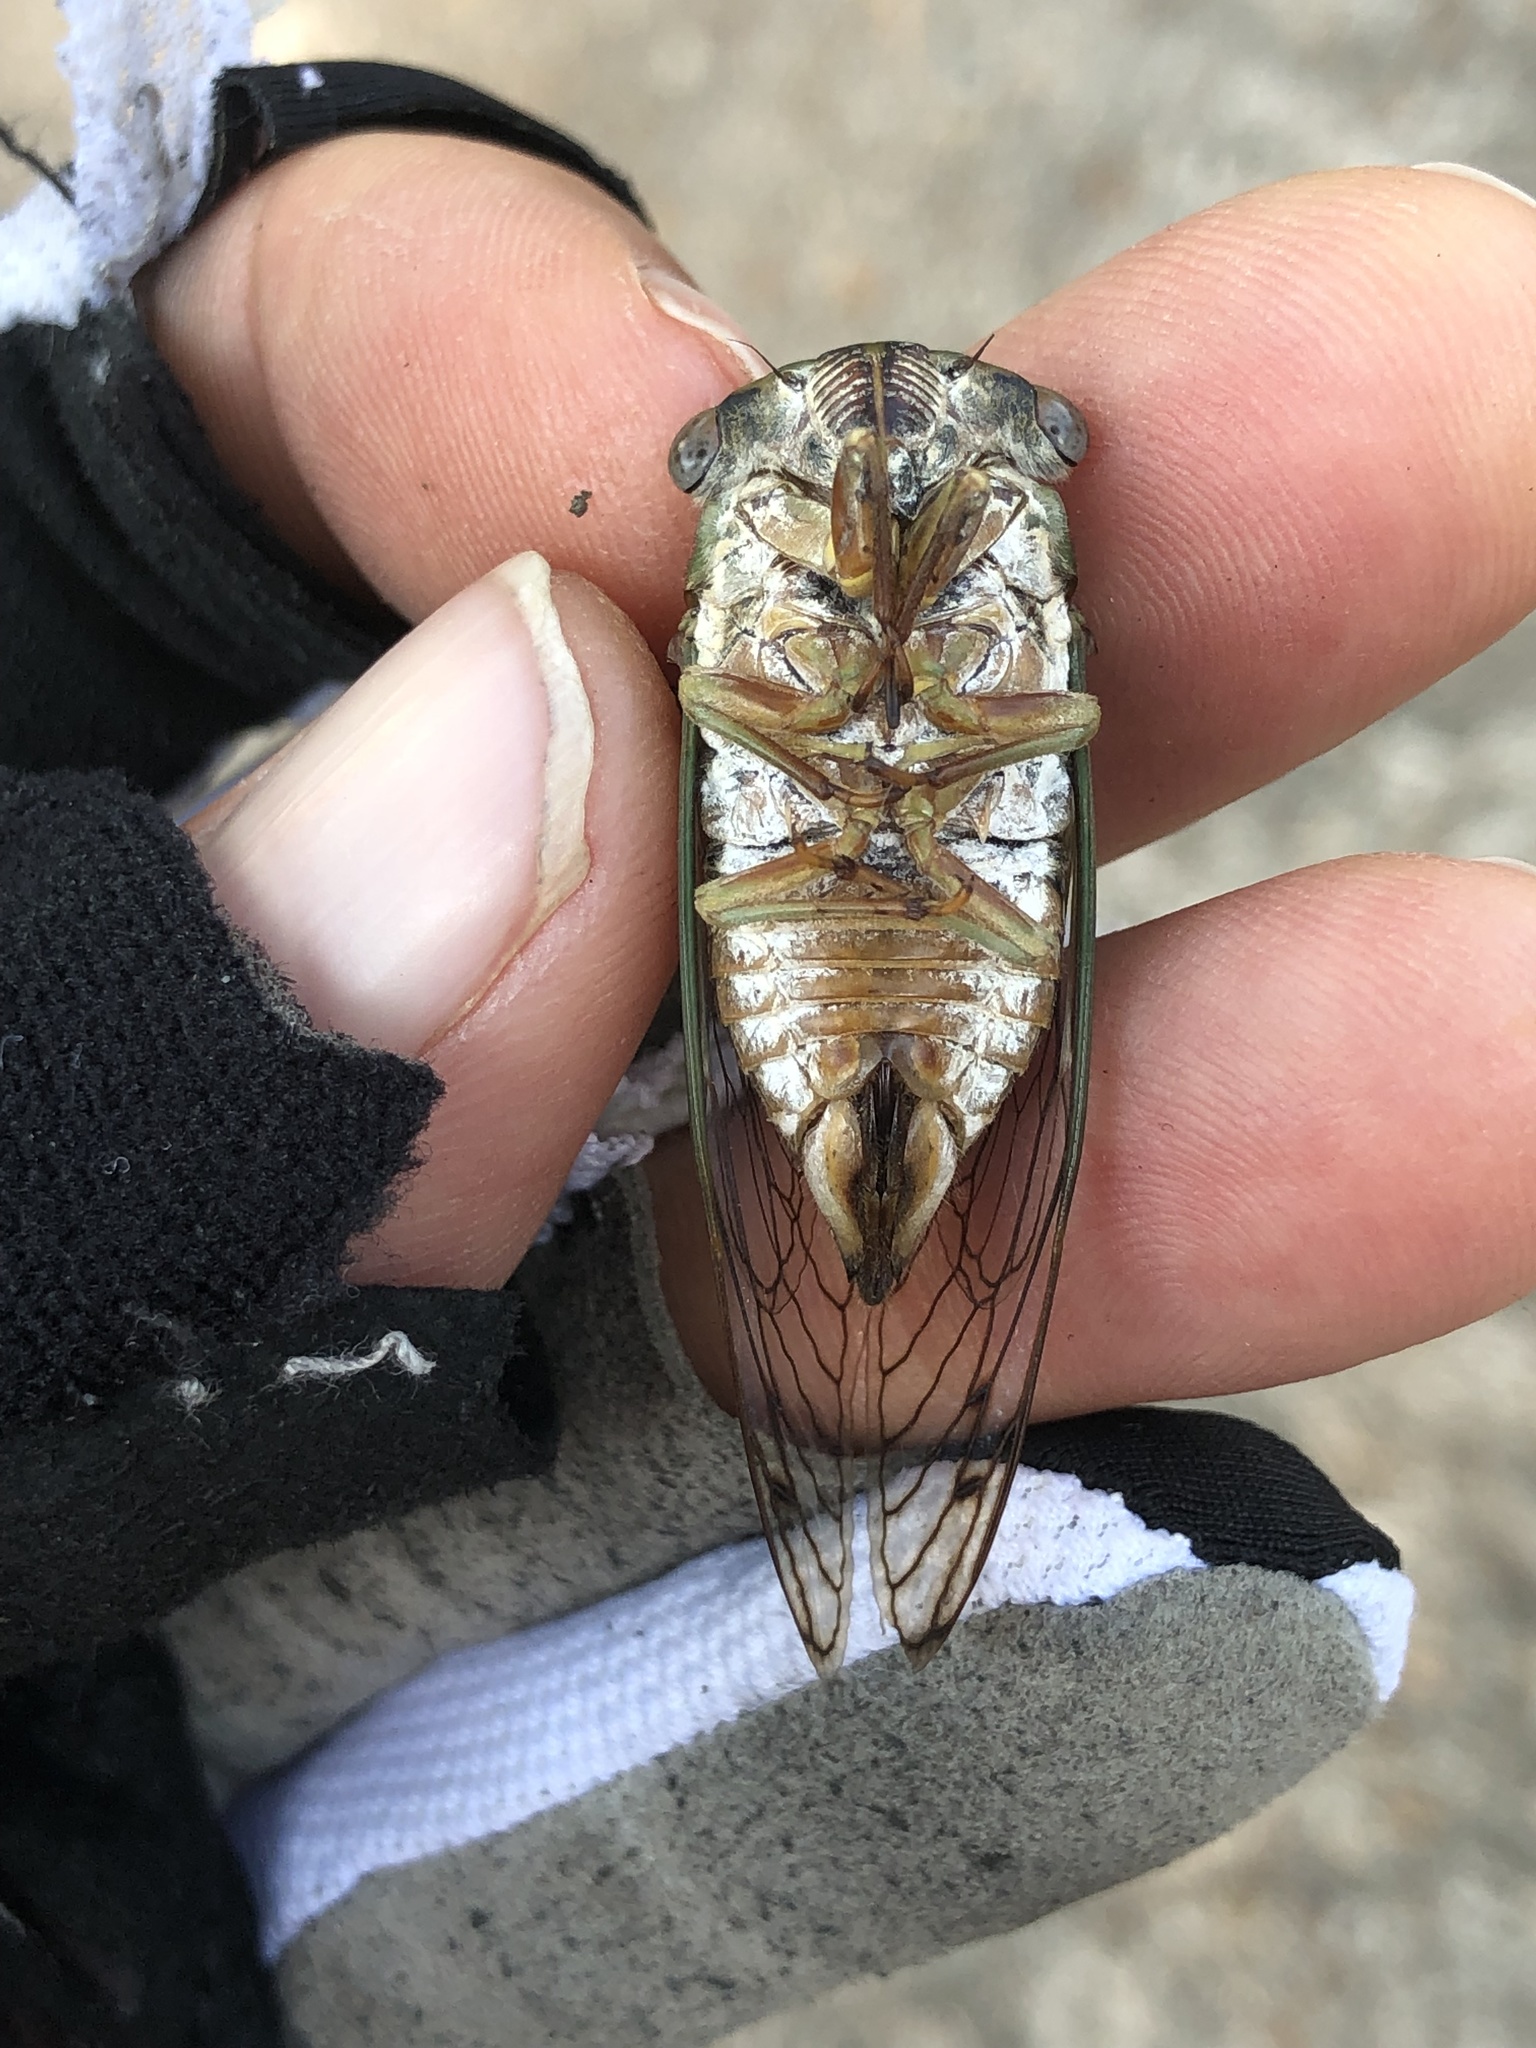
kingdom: Animalia
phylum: Arthropoda
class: Insecta
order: Hemiptera
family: Cicadidae
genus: Neotibicen
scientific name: Neotibicen davisi
